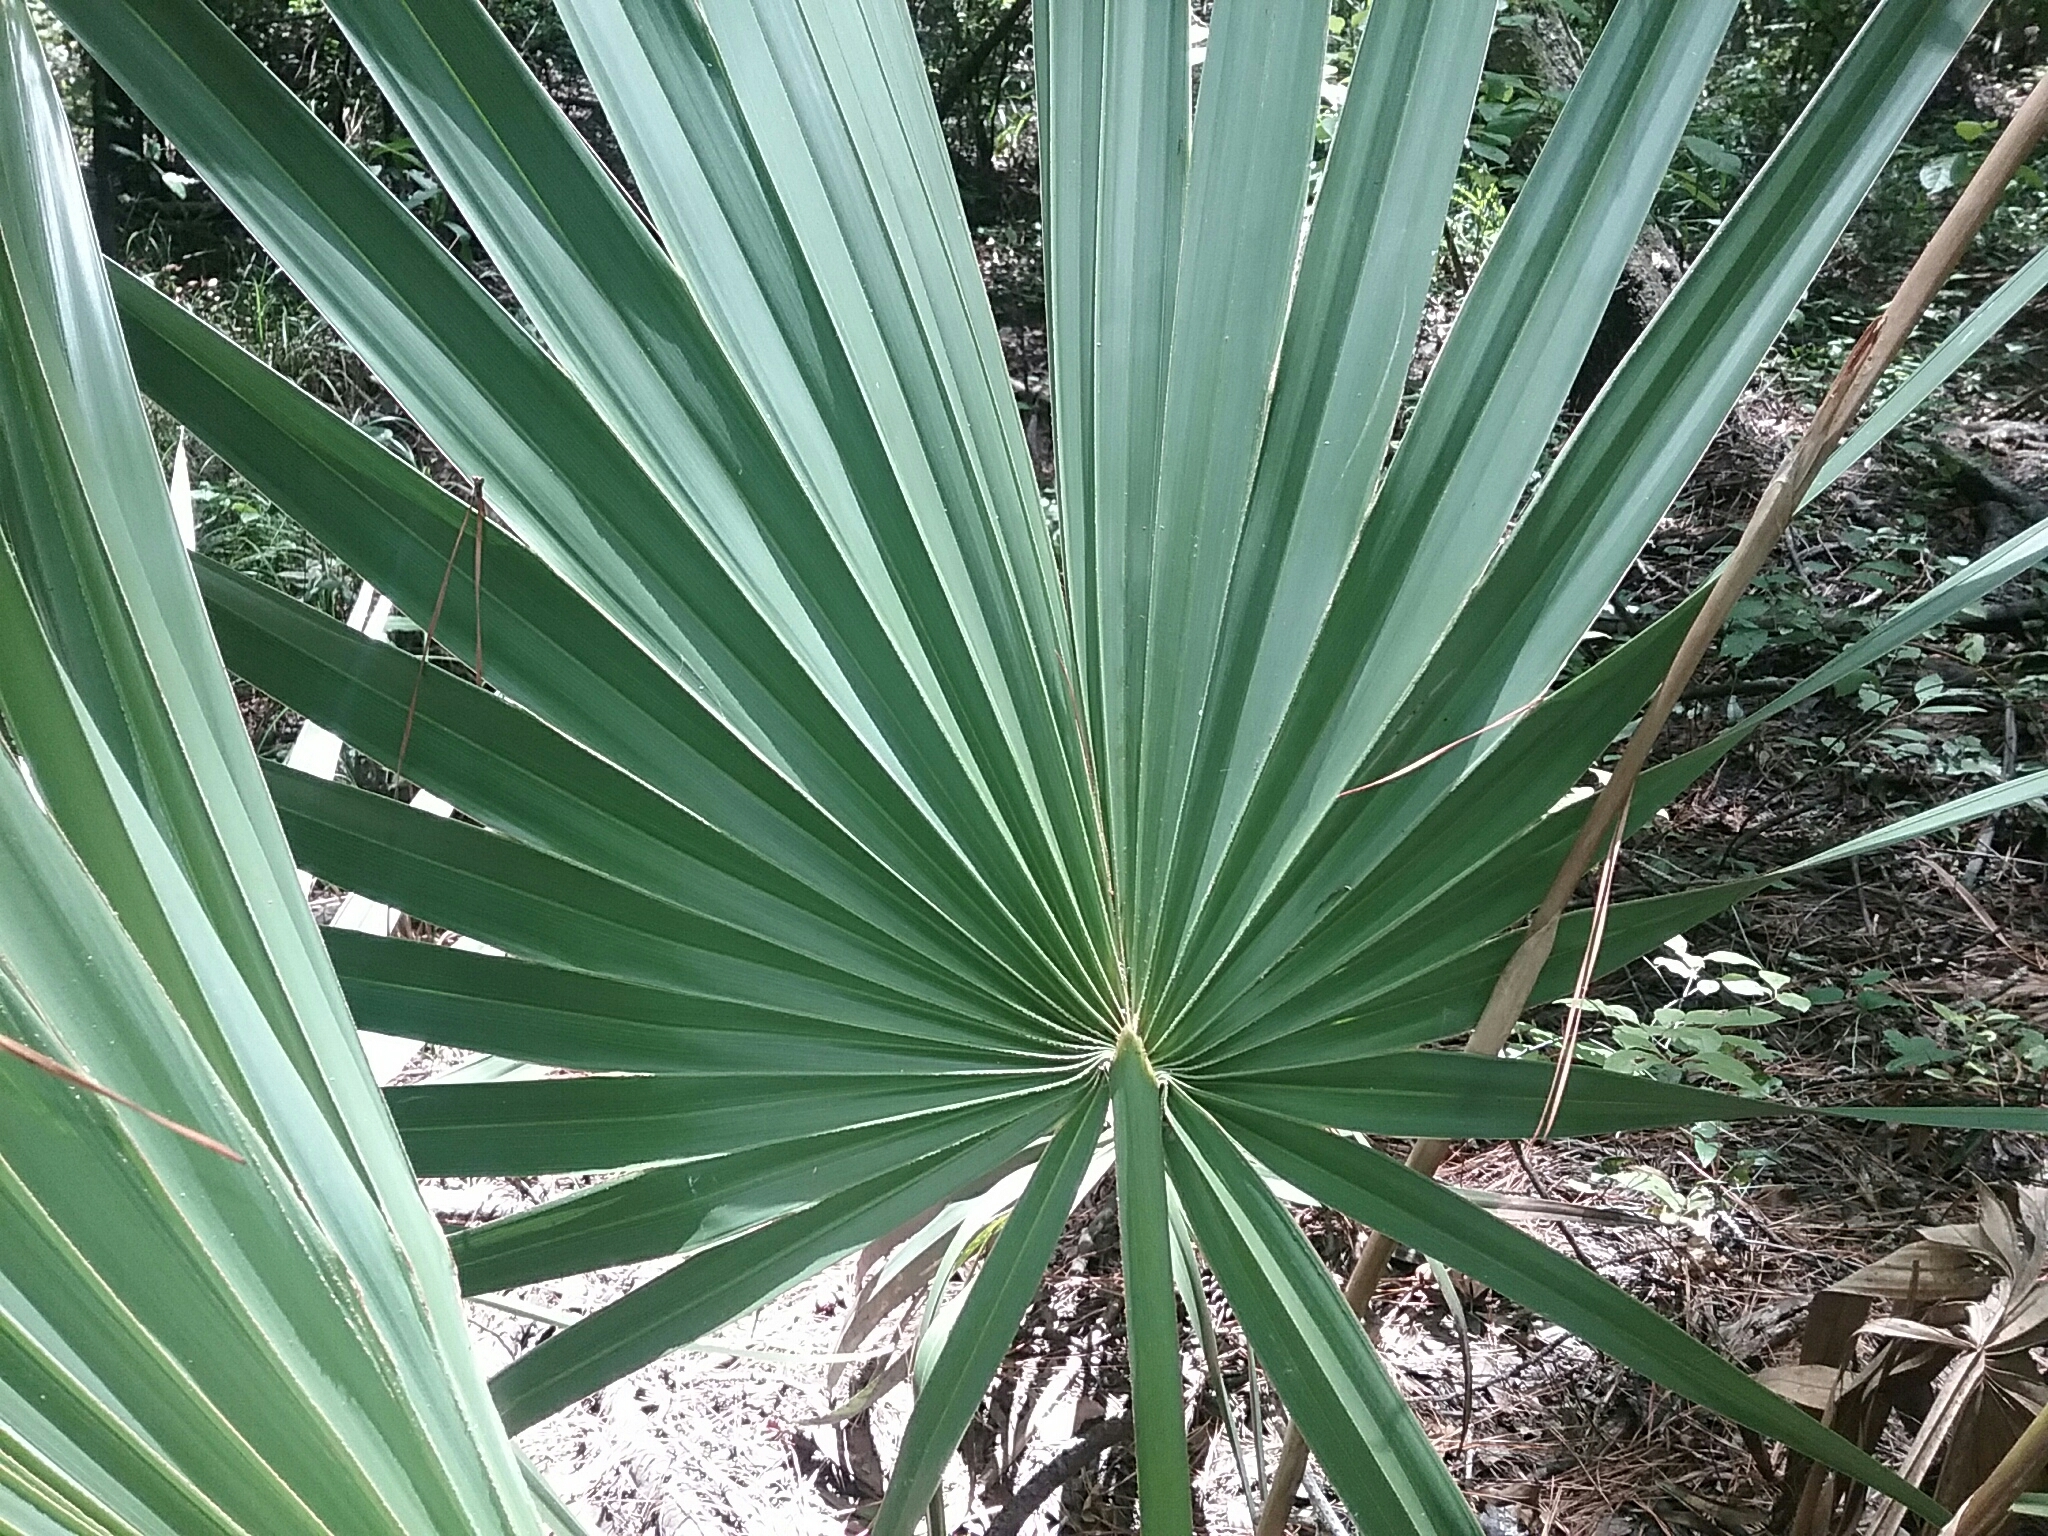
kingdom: Plantae
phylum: Tracheophyta
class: Liliopsida
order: Arecales
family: Arecaceae
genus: Sabal
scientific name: Sabal minor
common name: Dwarf palmetto
